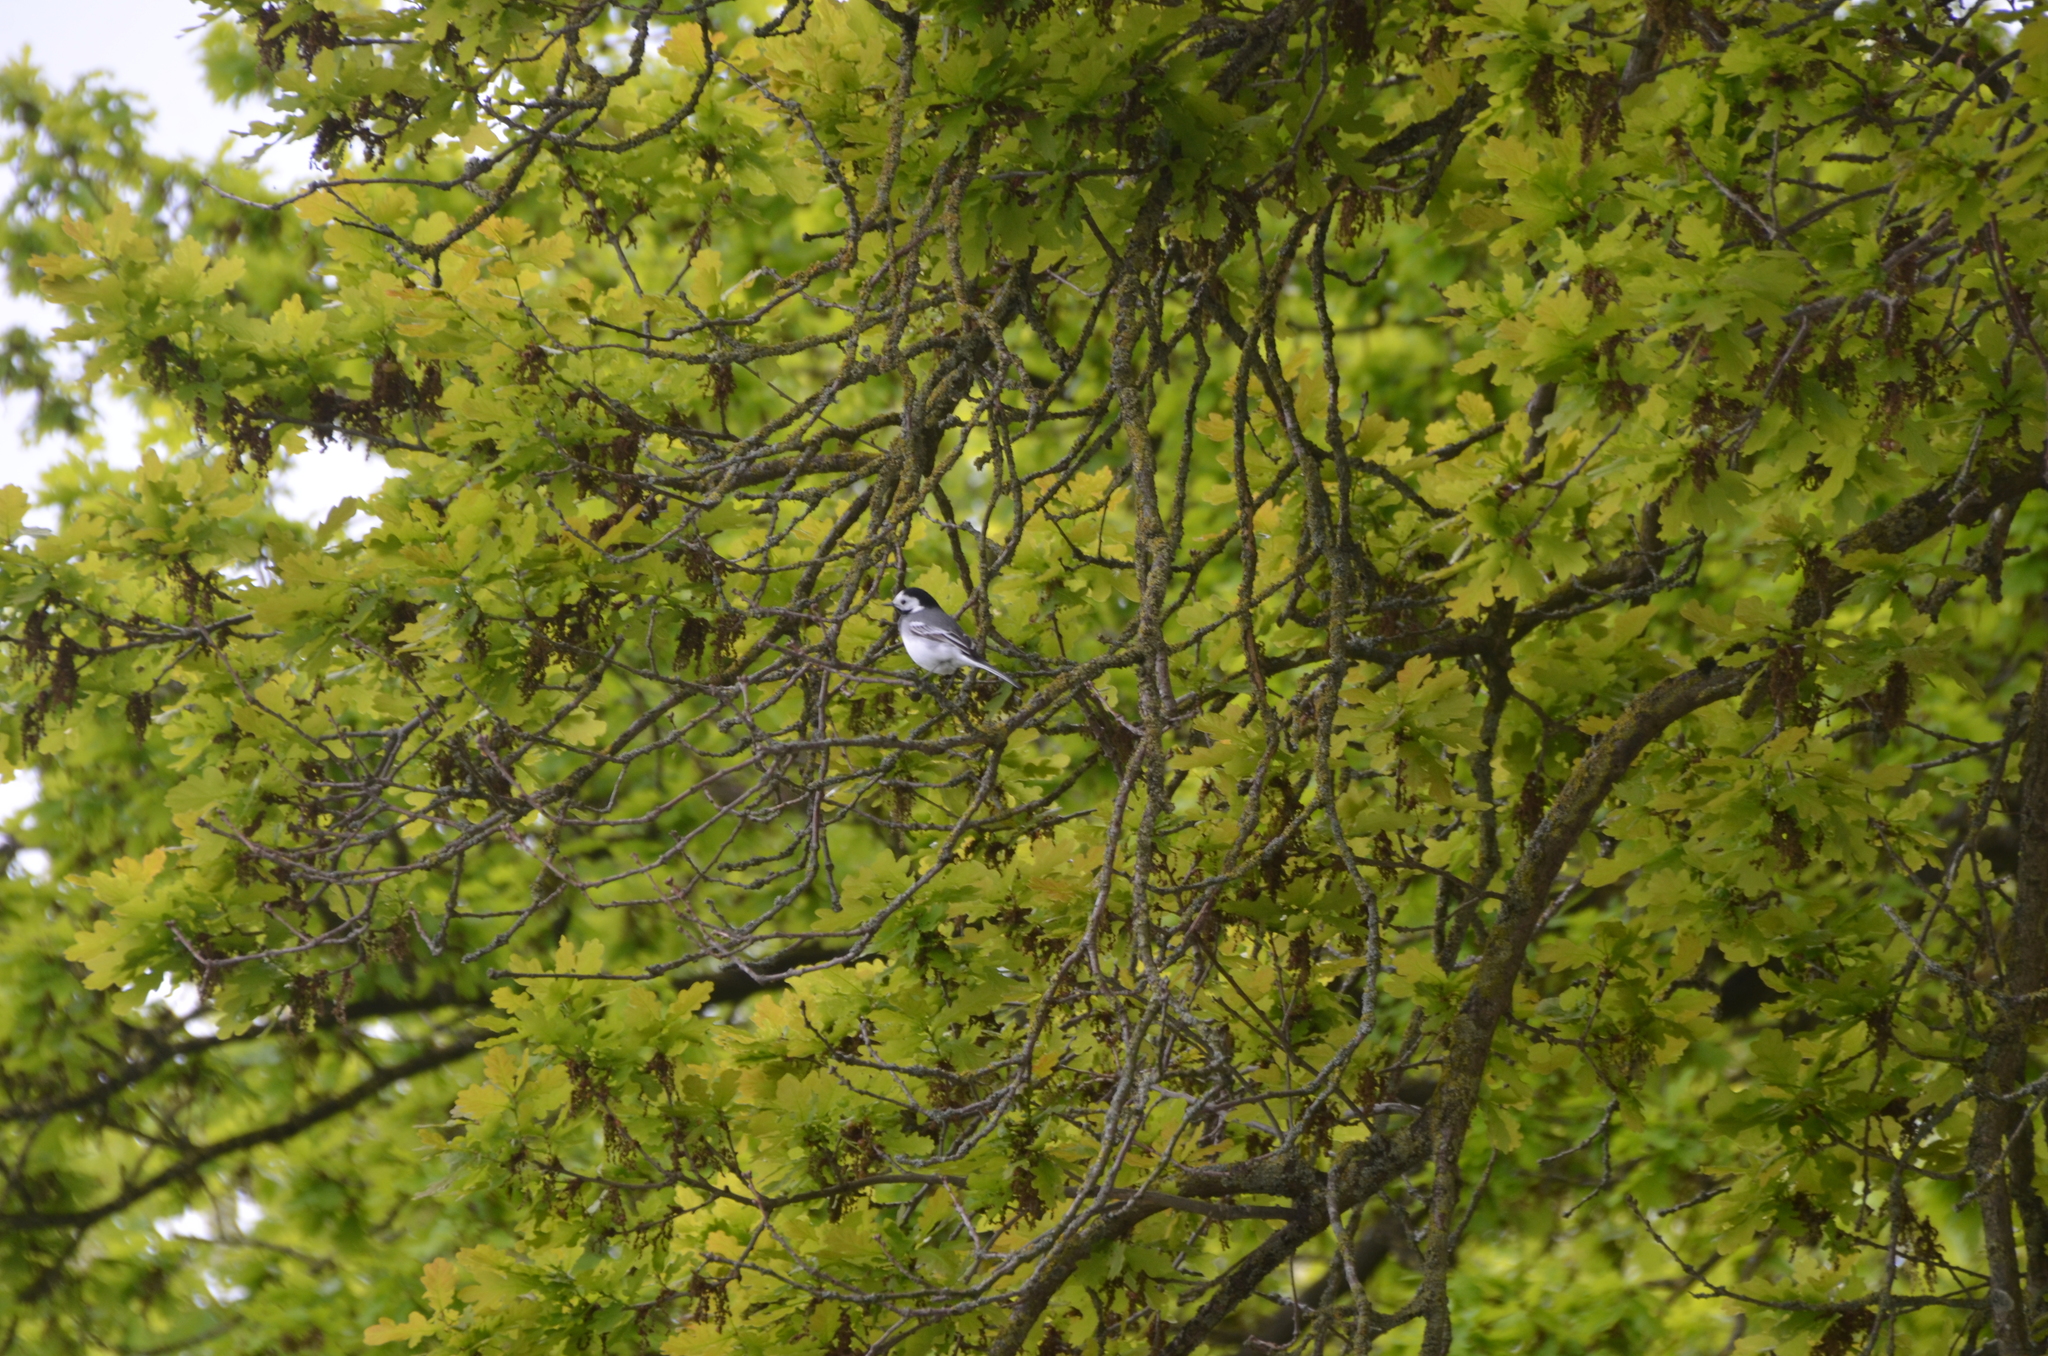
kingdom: Animalia
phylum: Chordata
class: Aves
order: Passeriformes
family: Motacillidae
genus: Motacilla
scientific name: Motacilla alba
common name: White wagtail
